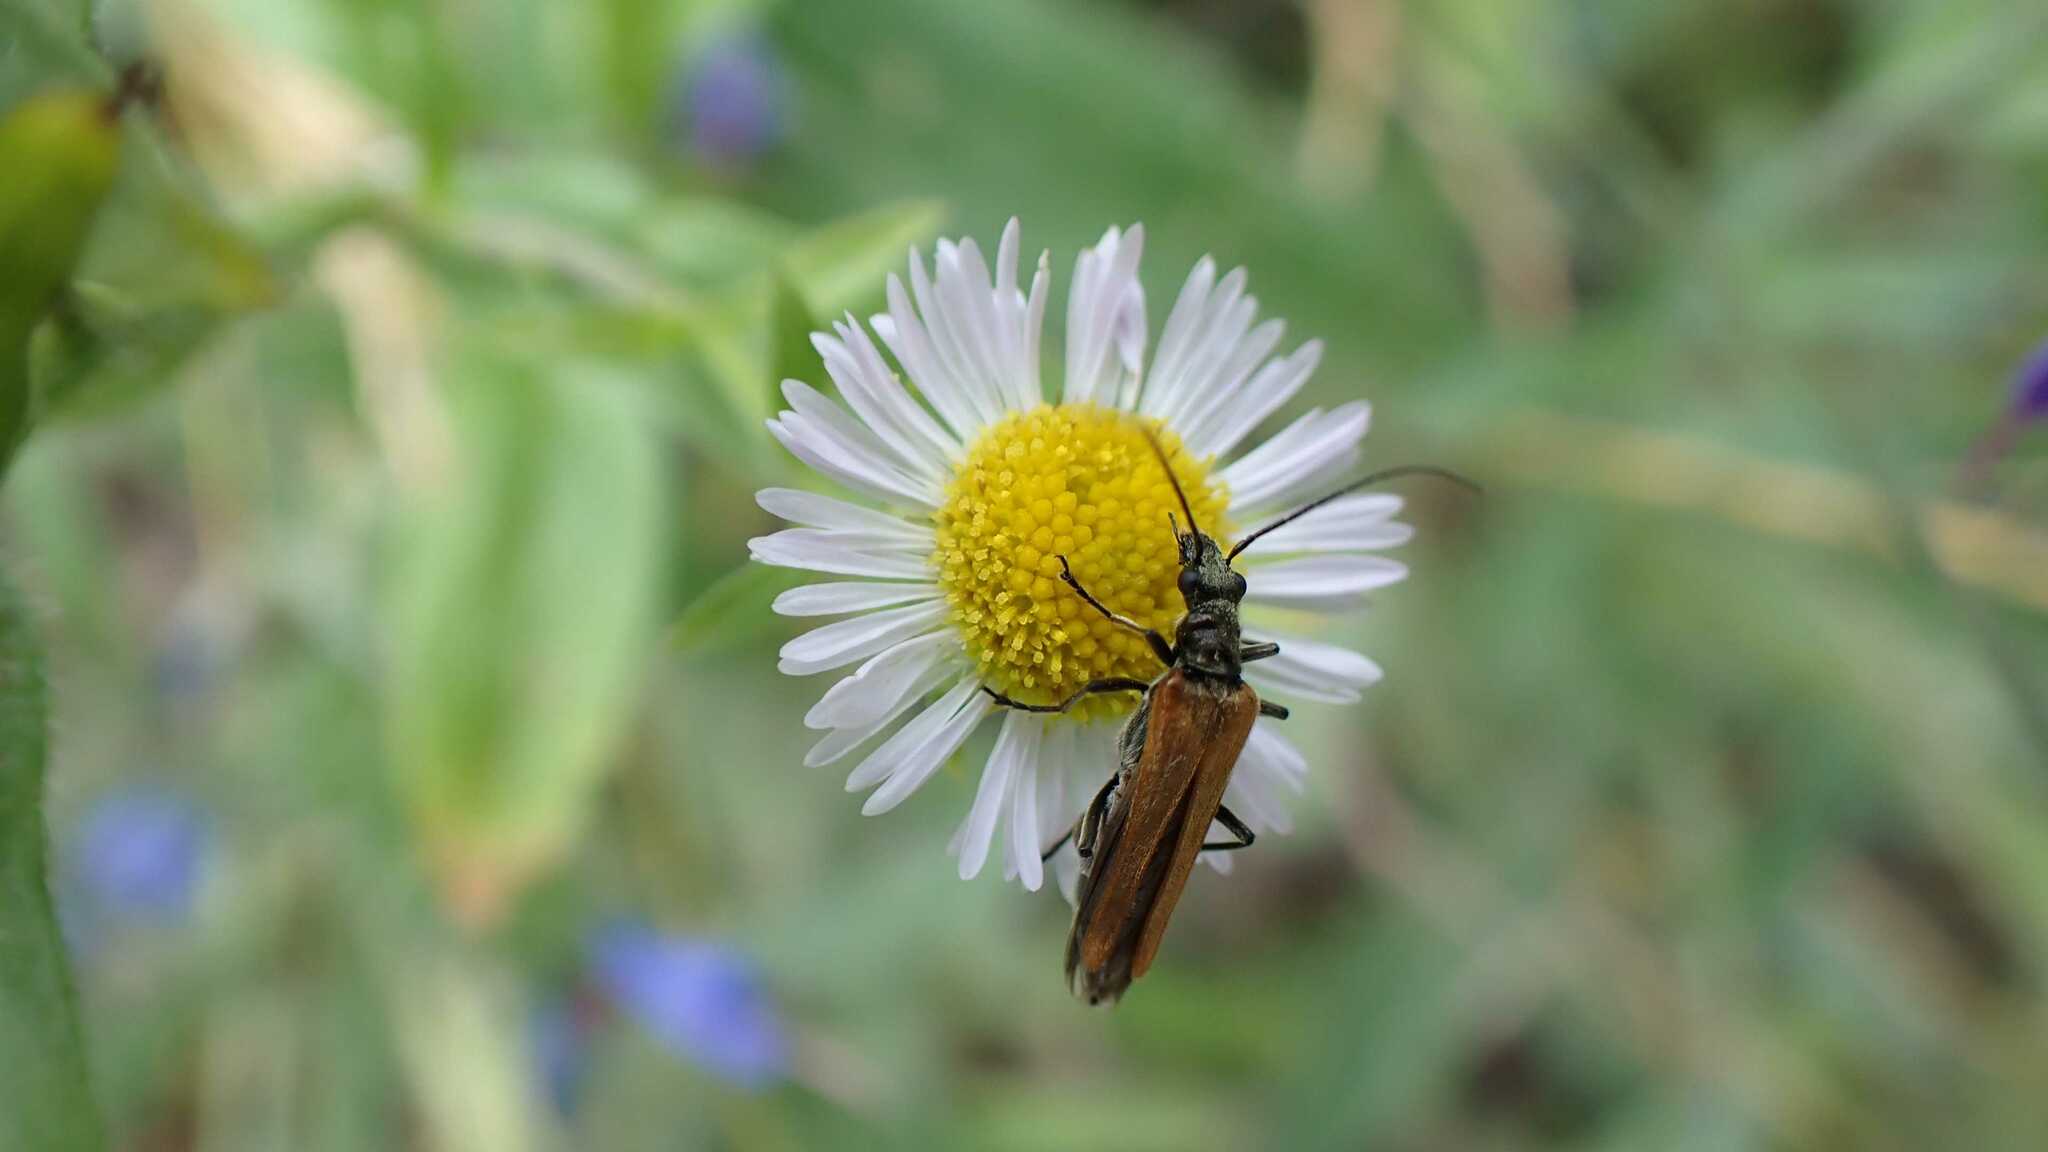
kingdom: Animalia
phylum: Arthropoda
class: Insecta
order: Coleoptera
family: Oedemeridae
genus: Oedemera
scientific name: Oedemera femorata
